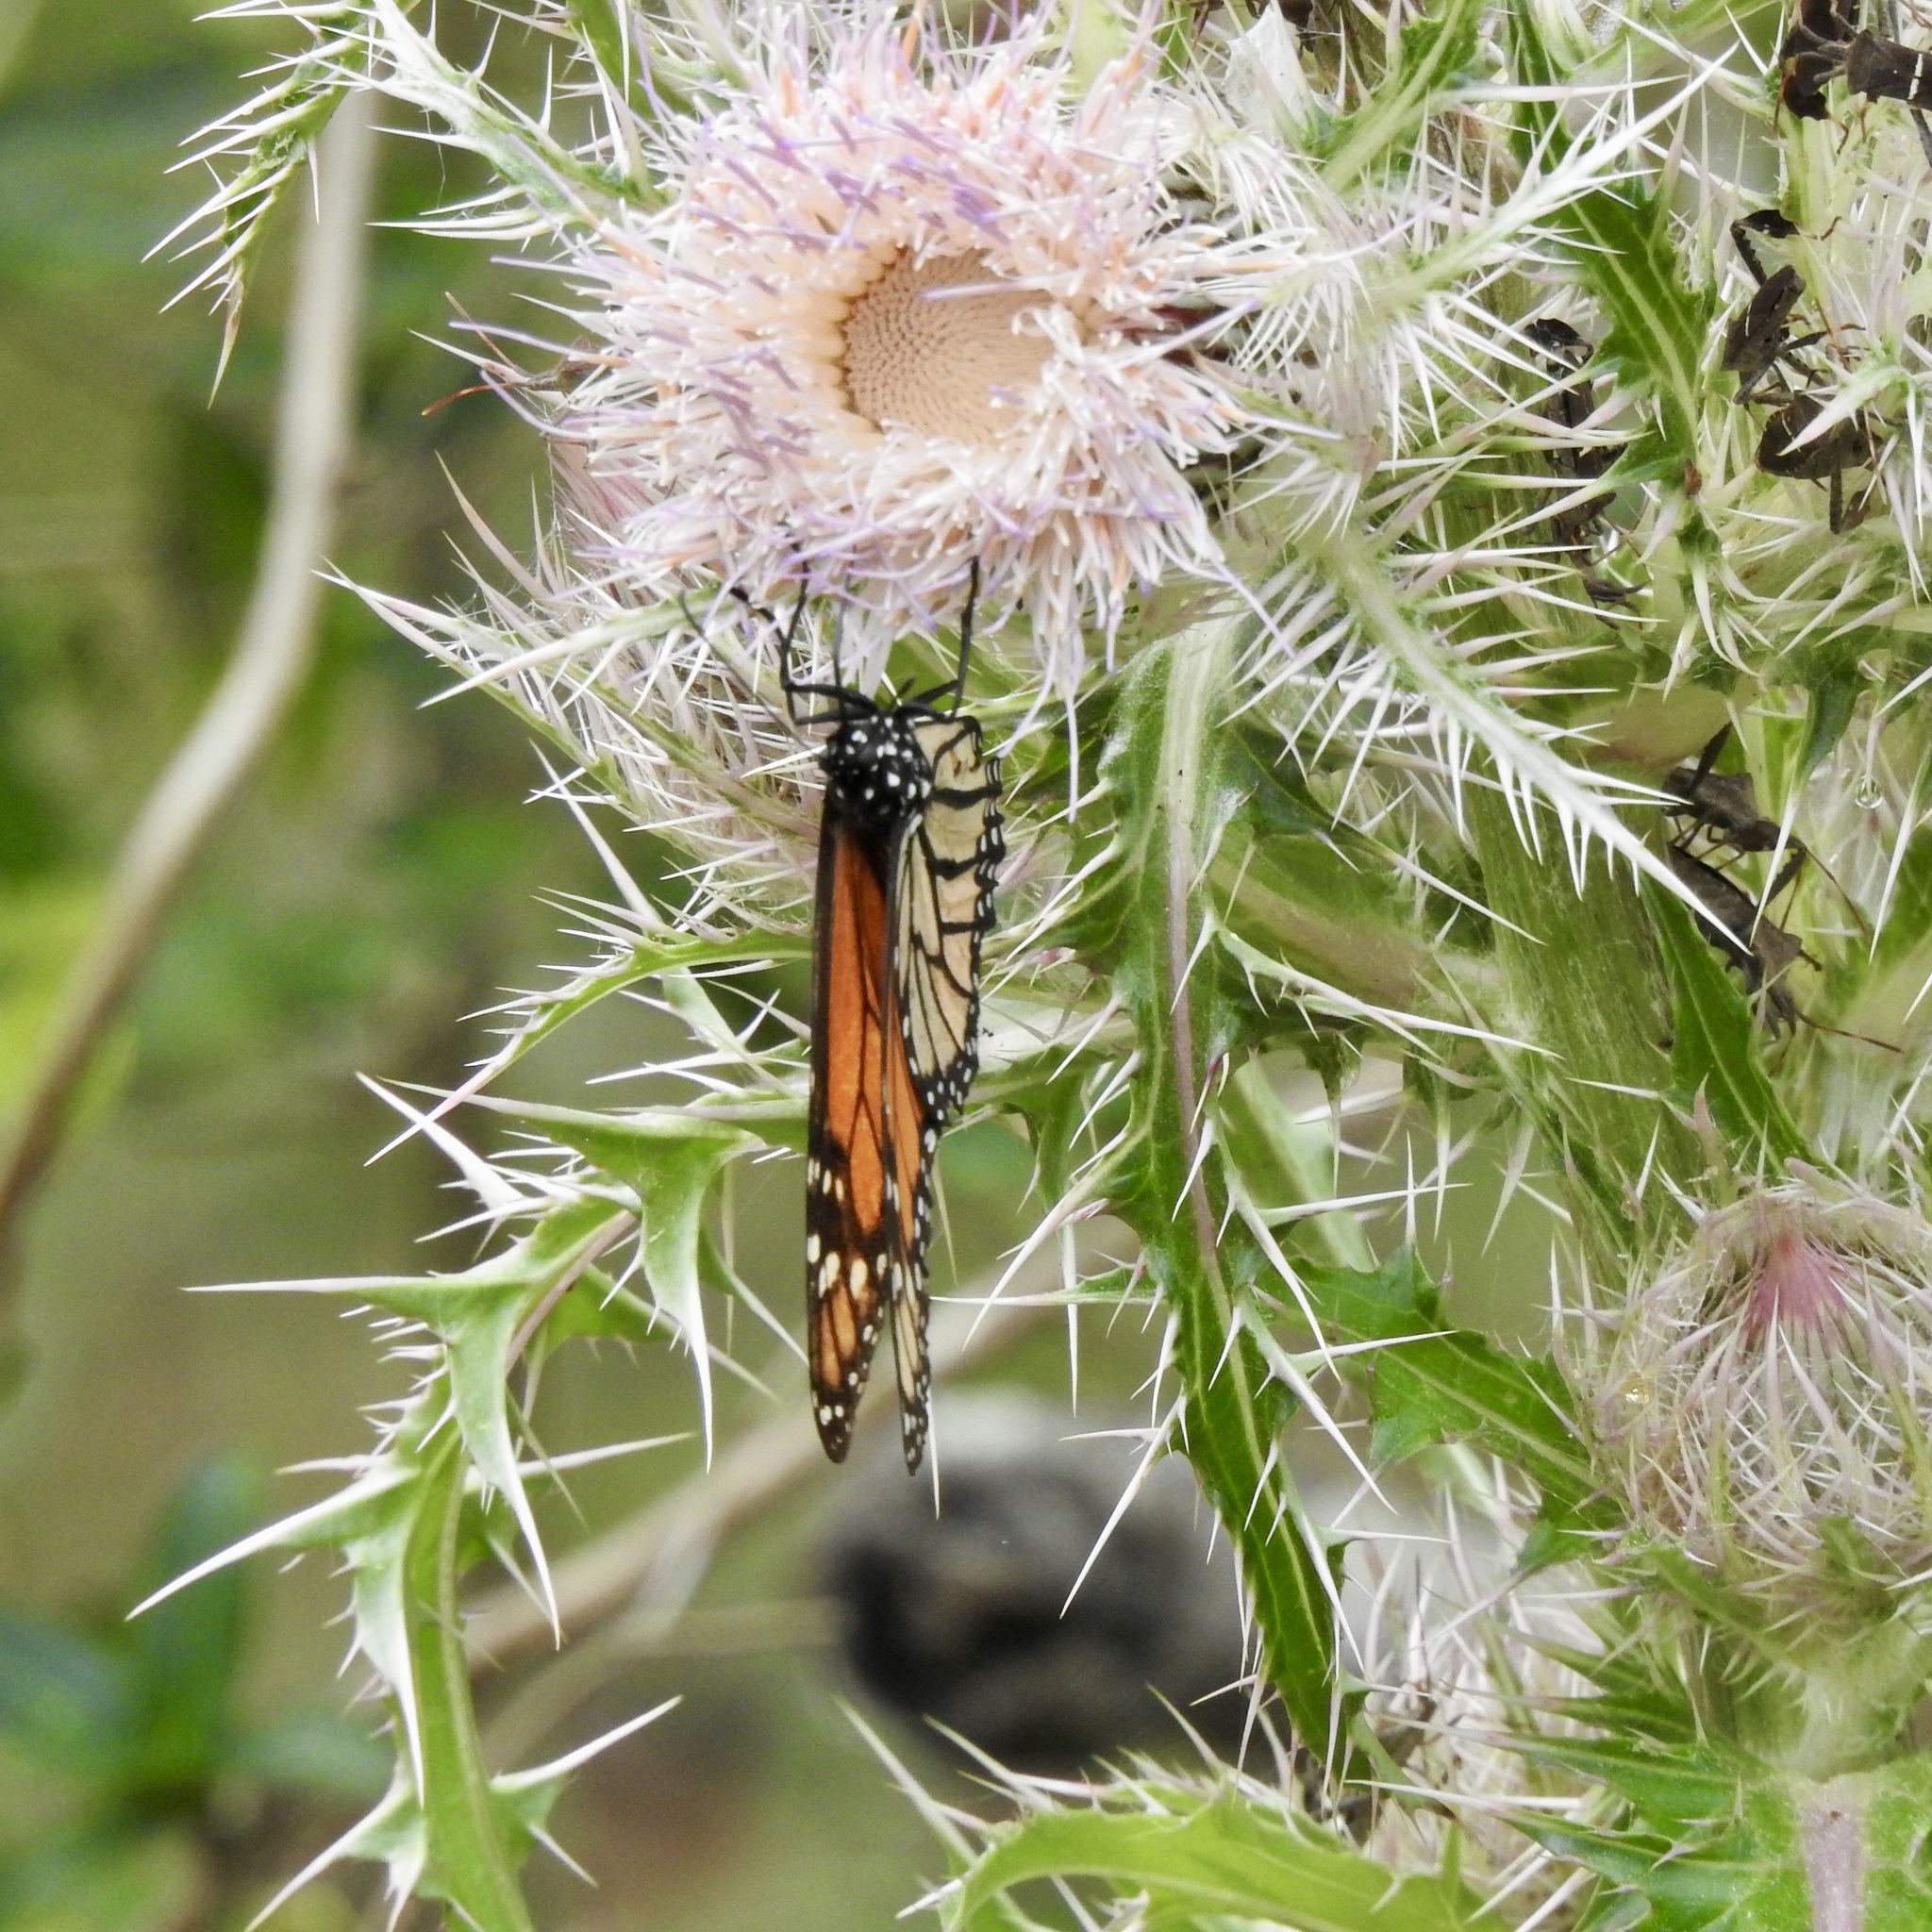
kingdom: Animalia
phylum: Arthropoda
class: Insecta
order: Lepidoptera
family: Nymphalidae
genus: Danaus
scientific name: Danaus plexippus
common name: Monarch
